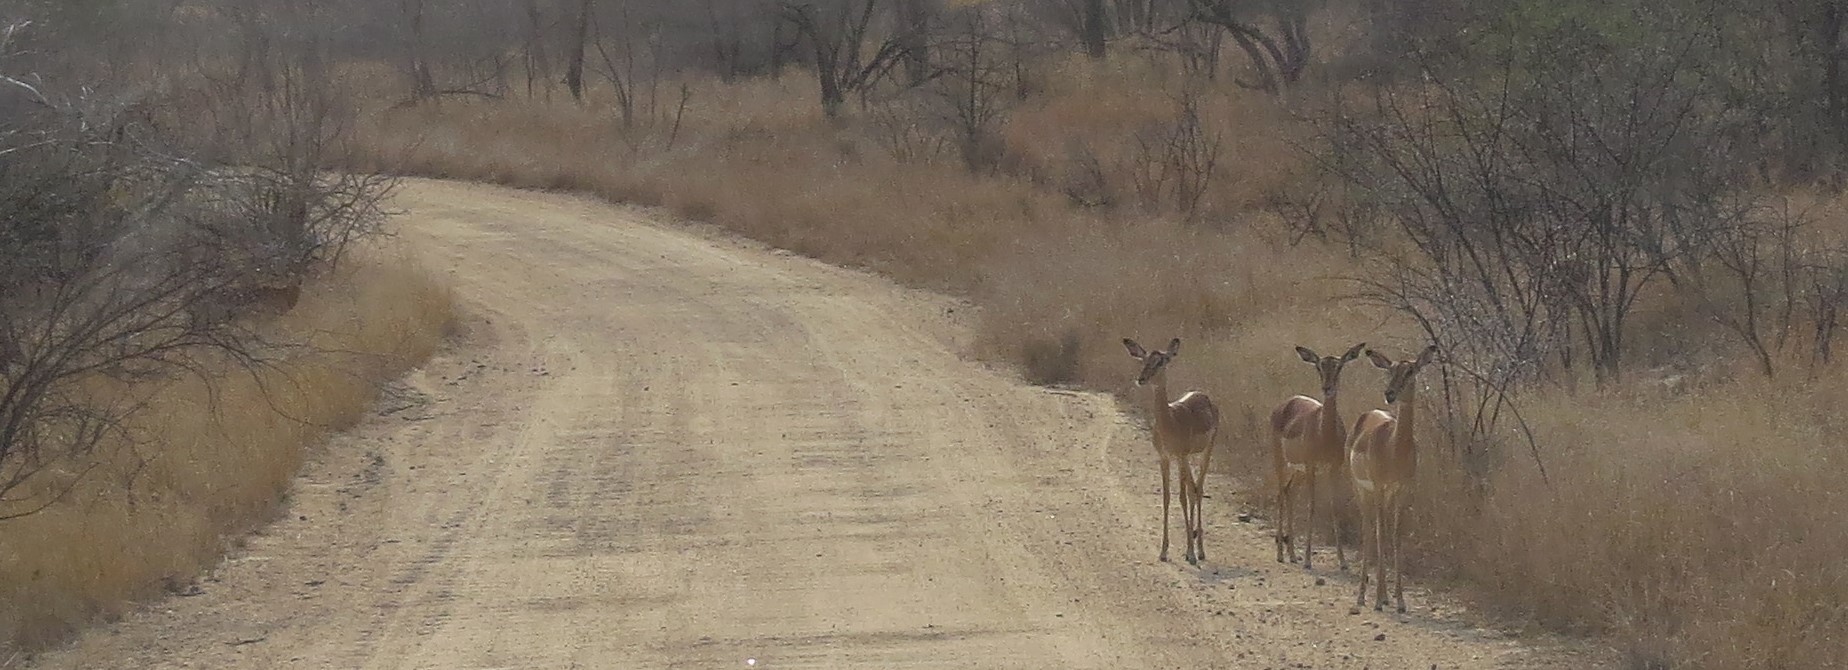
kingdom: Animalia
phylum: Chordata
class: Mammalia
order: Artiodactyla
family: Bovidae
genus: Aepyceros
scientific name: Aepyceros melampus
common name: Impala
